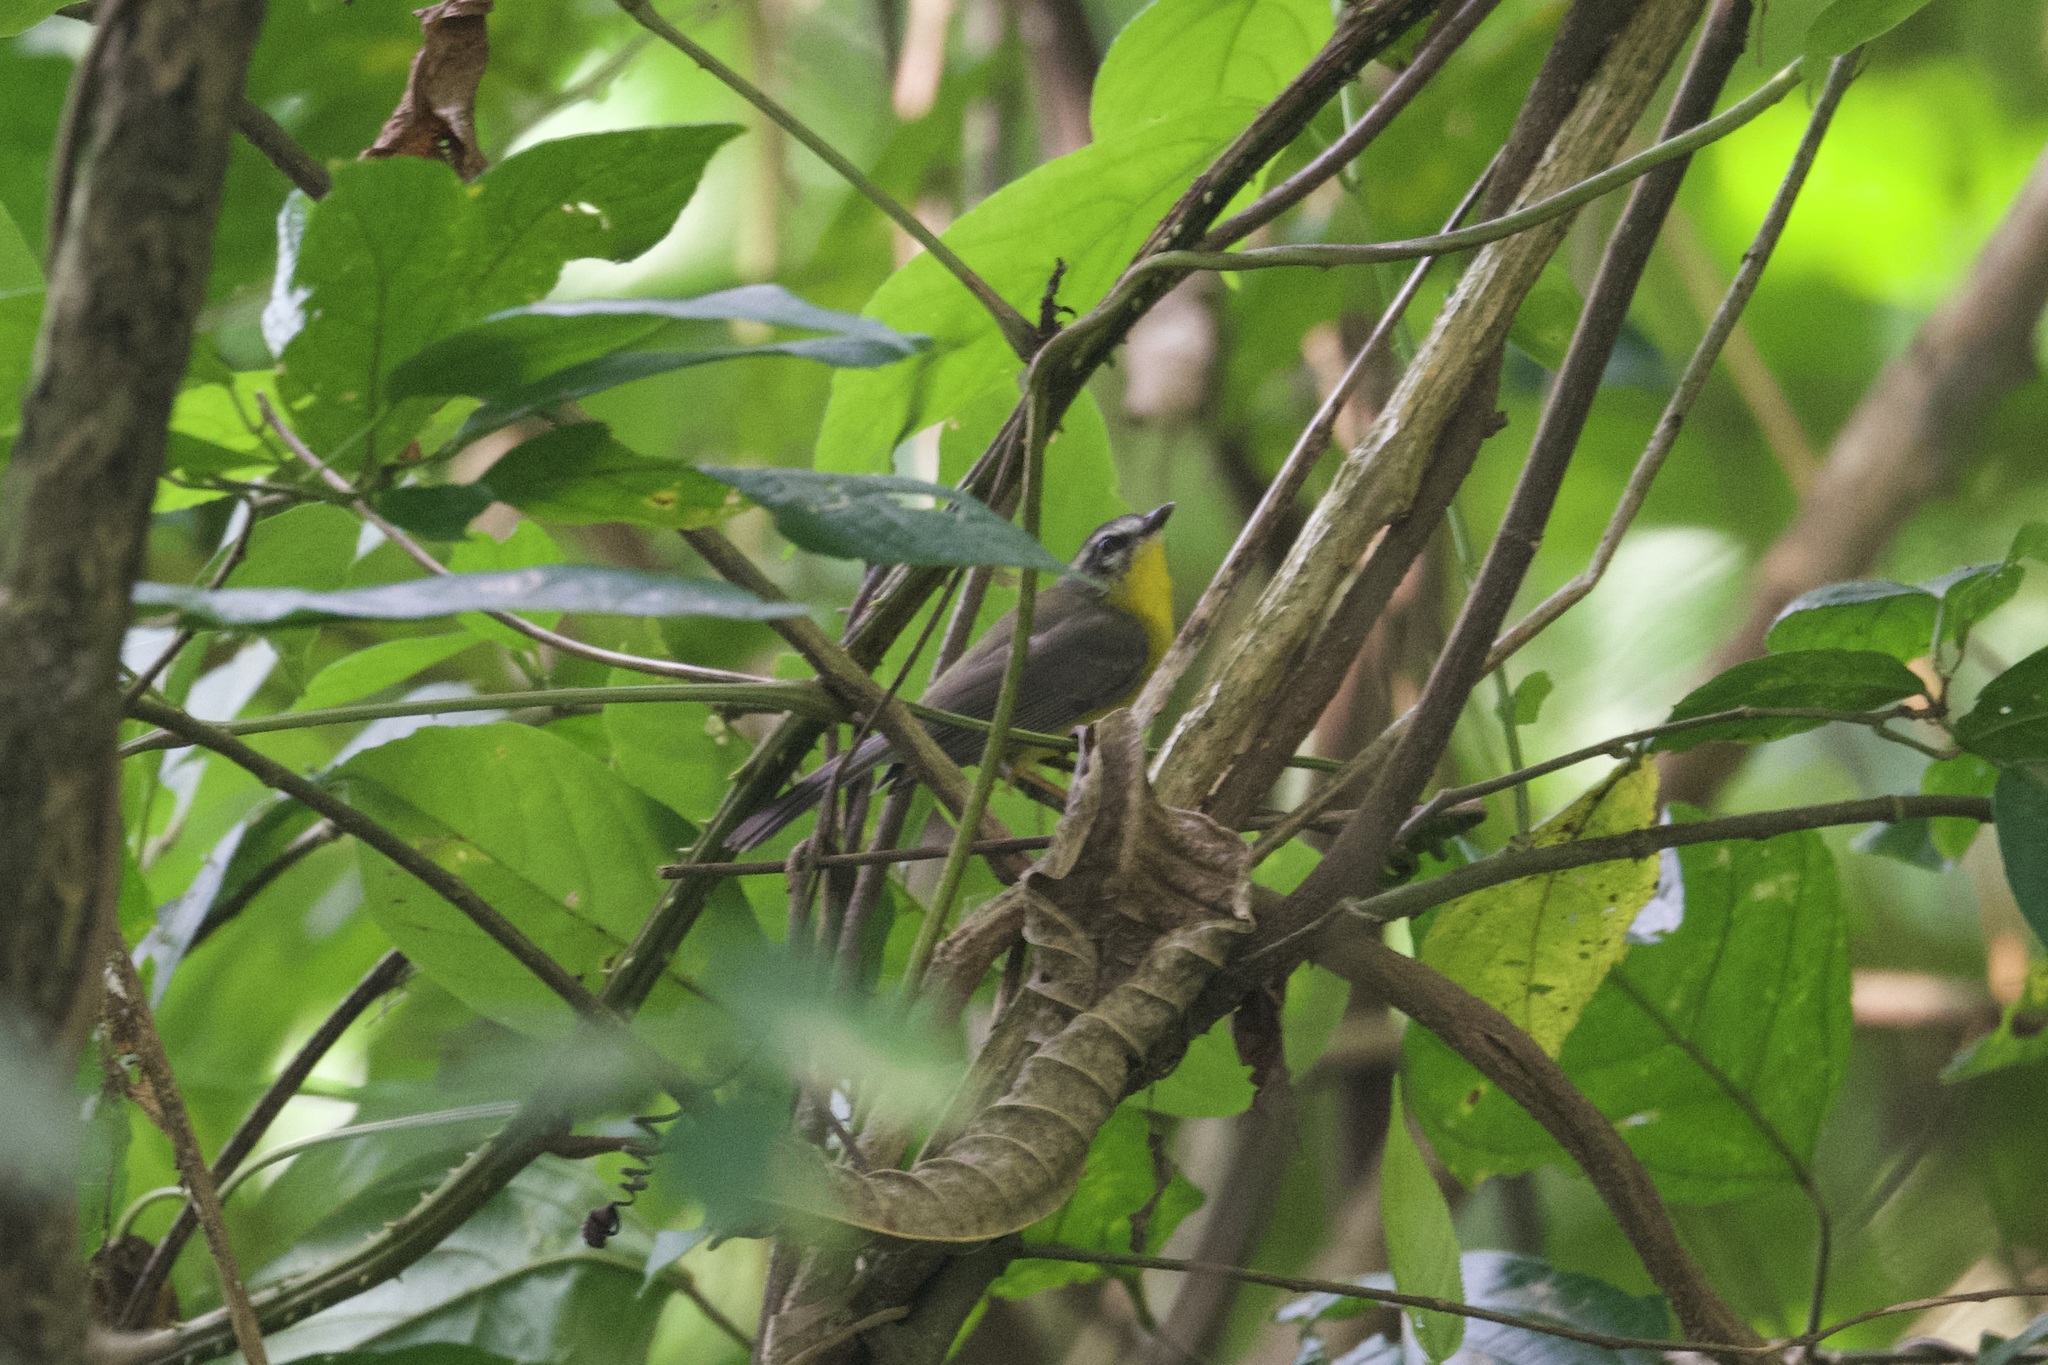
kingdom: Animalia
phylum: Chordata
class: Aves
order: Passeriformes
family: Parulidae
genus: Basileuterus
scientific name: Basileuterus rufifrons
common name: Rufous-capped warbler
